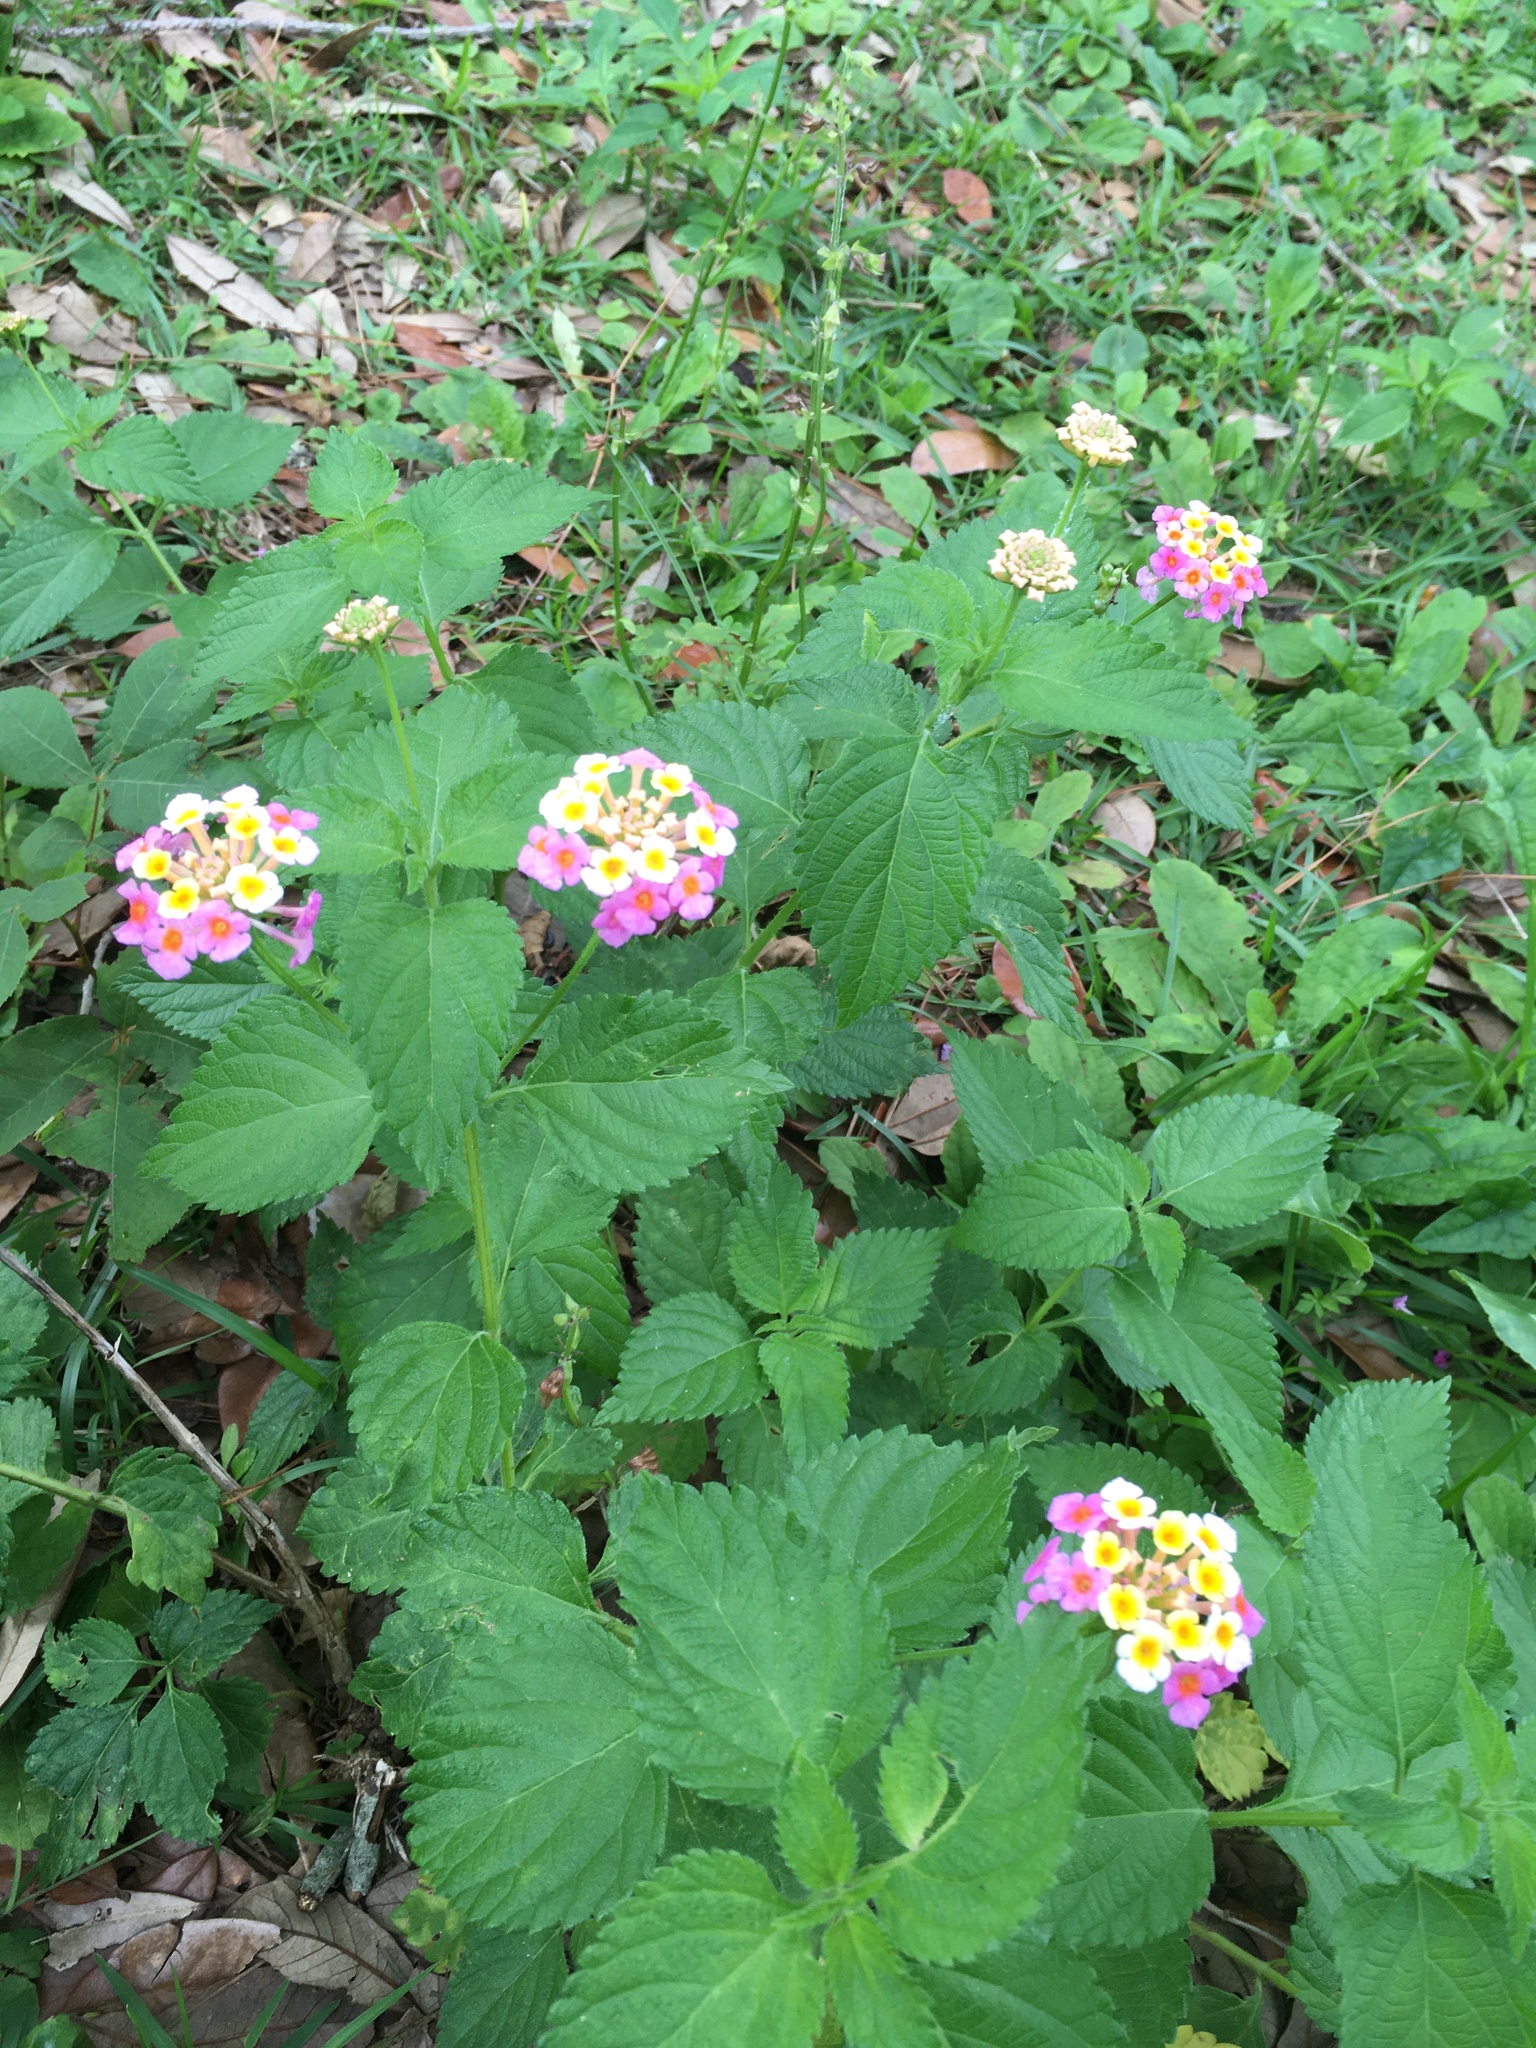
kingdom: Plantae
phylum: Tracheophyta
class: Magnoliopsida
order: Lamiales
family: Verbenaceae
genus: Lantana
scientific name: Lantana strigocamara
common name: Lantana
